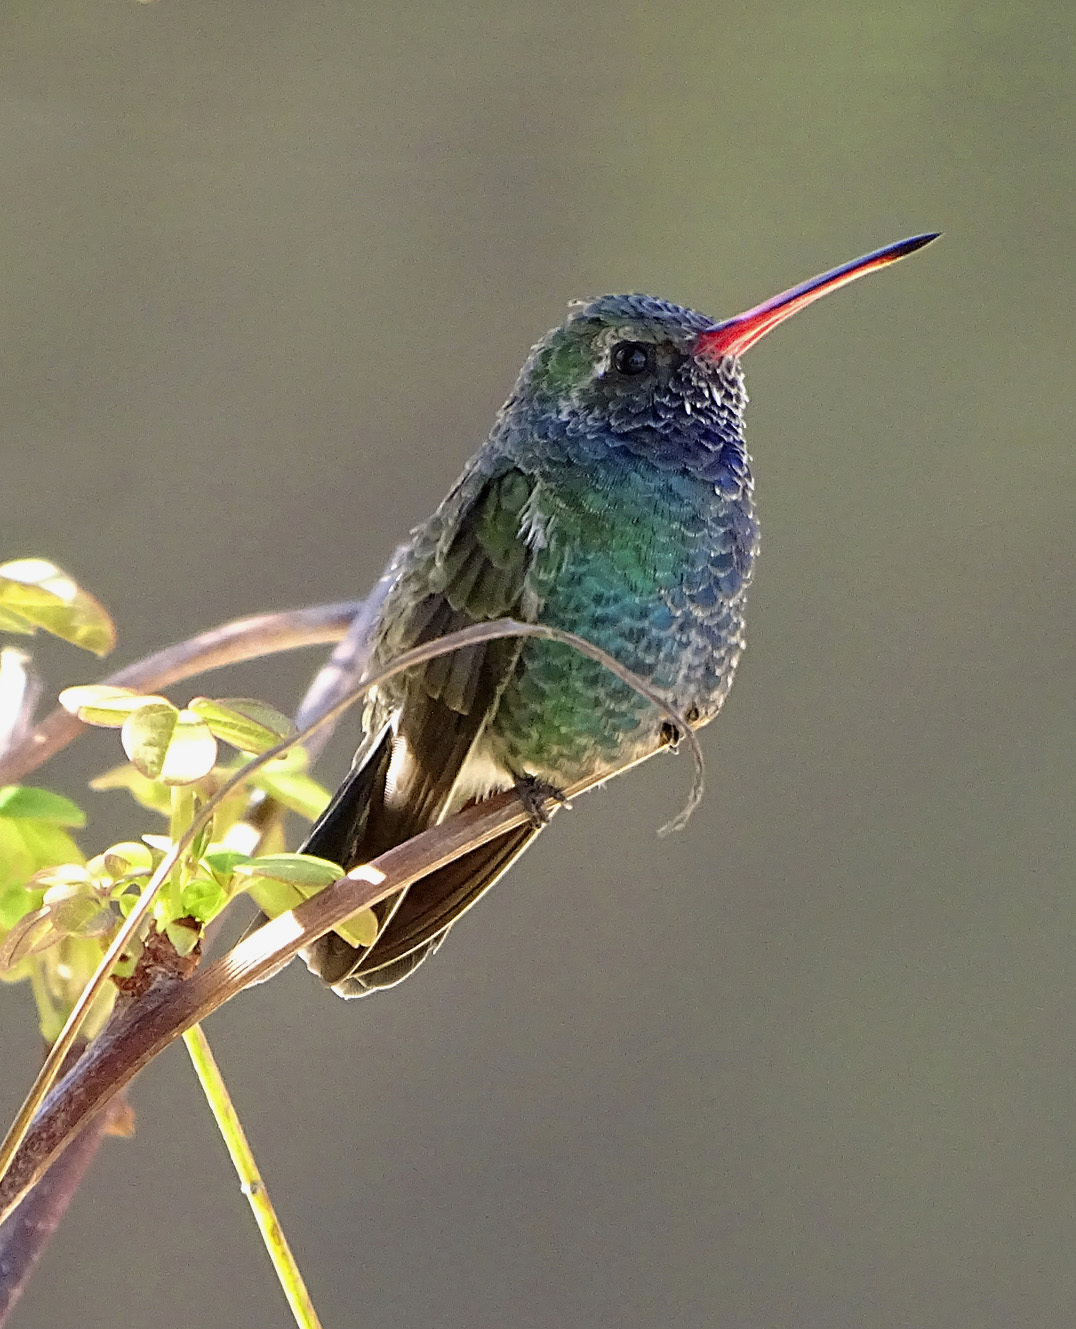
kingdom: Animalia
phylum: Chordata
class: Aves
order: Apodiformes
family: Trochilidae
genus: Cynanthus
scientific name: Cynanthus latirostris
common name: Broad-billed hummingbird
